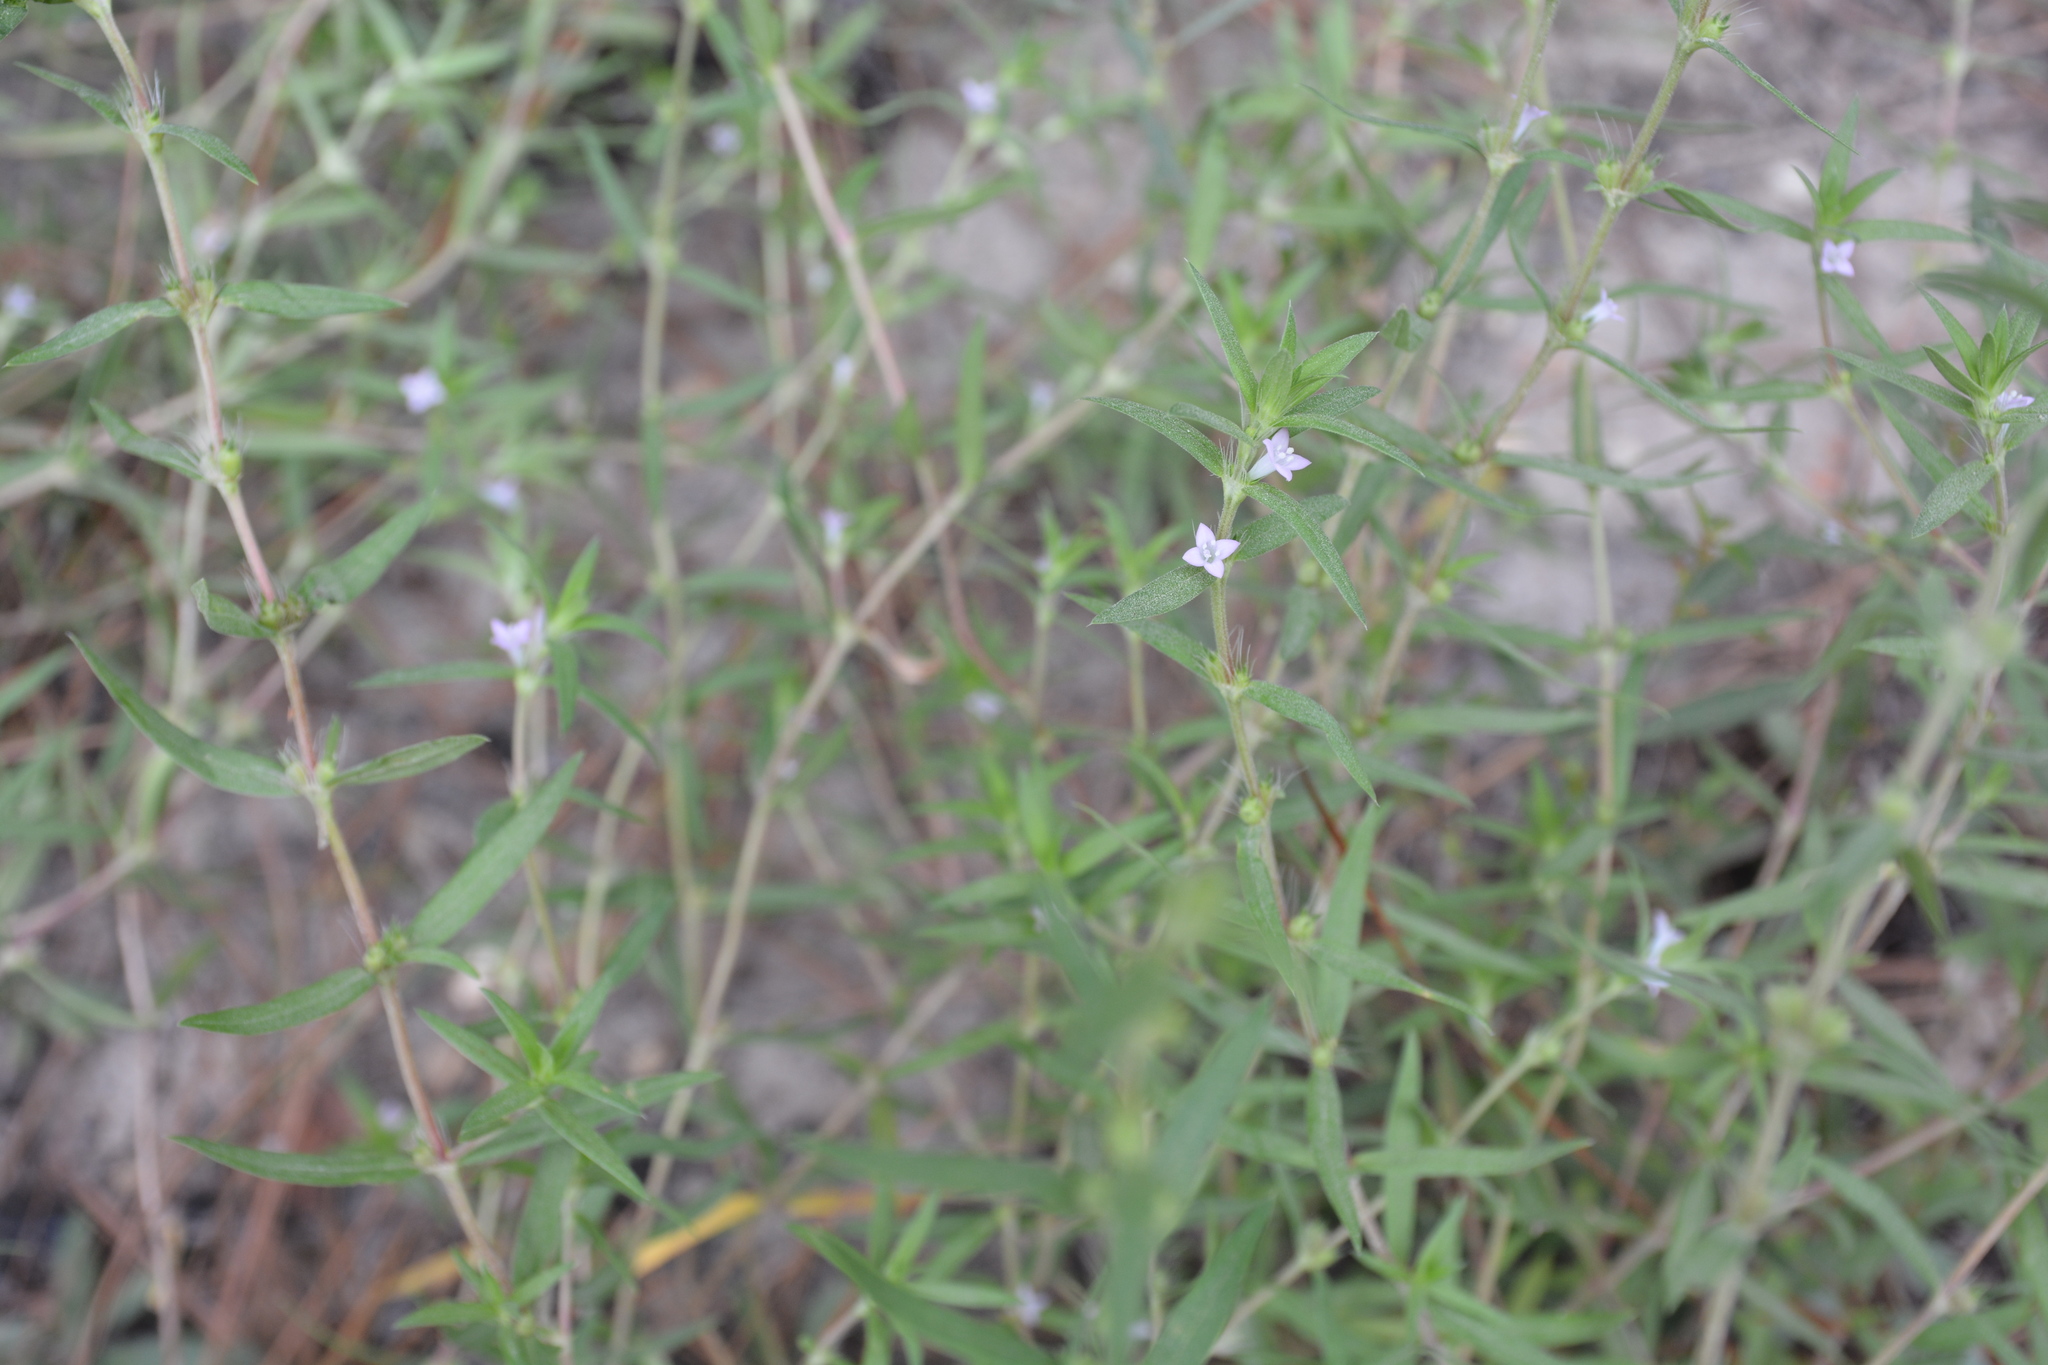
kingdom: Plantae
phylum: Tracheophyta
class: Magnoliopsida
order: Gentianales
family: Rubiaceae
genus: Hexasepalum
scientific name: Hexasepalum teres
